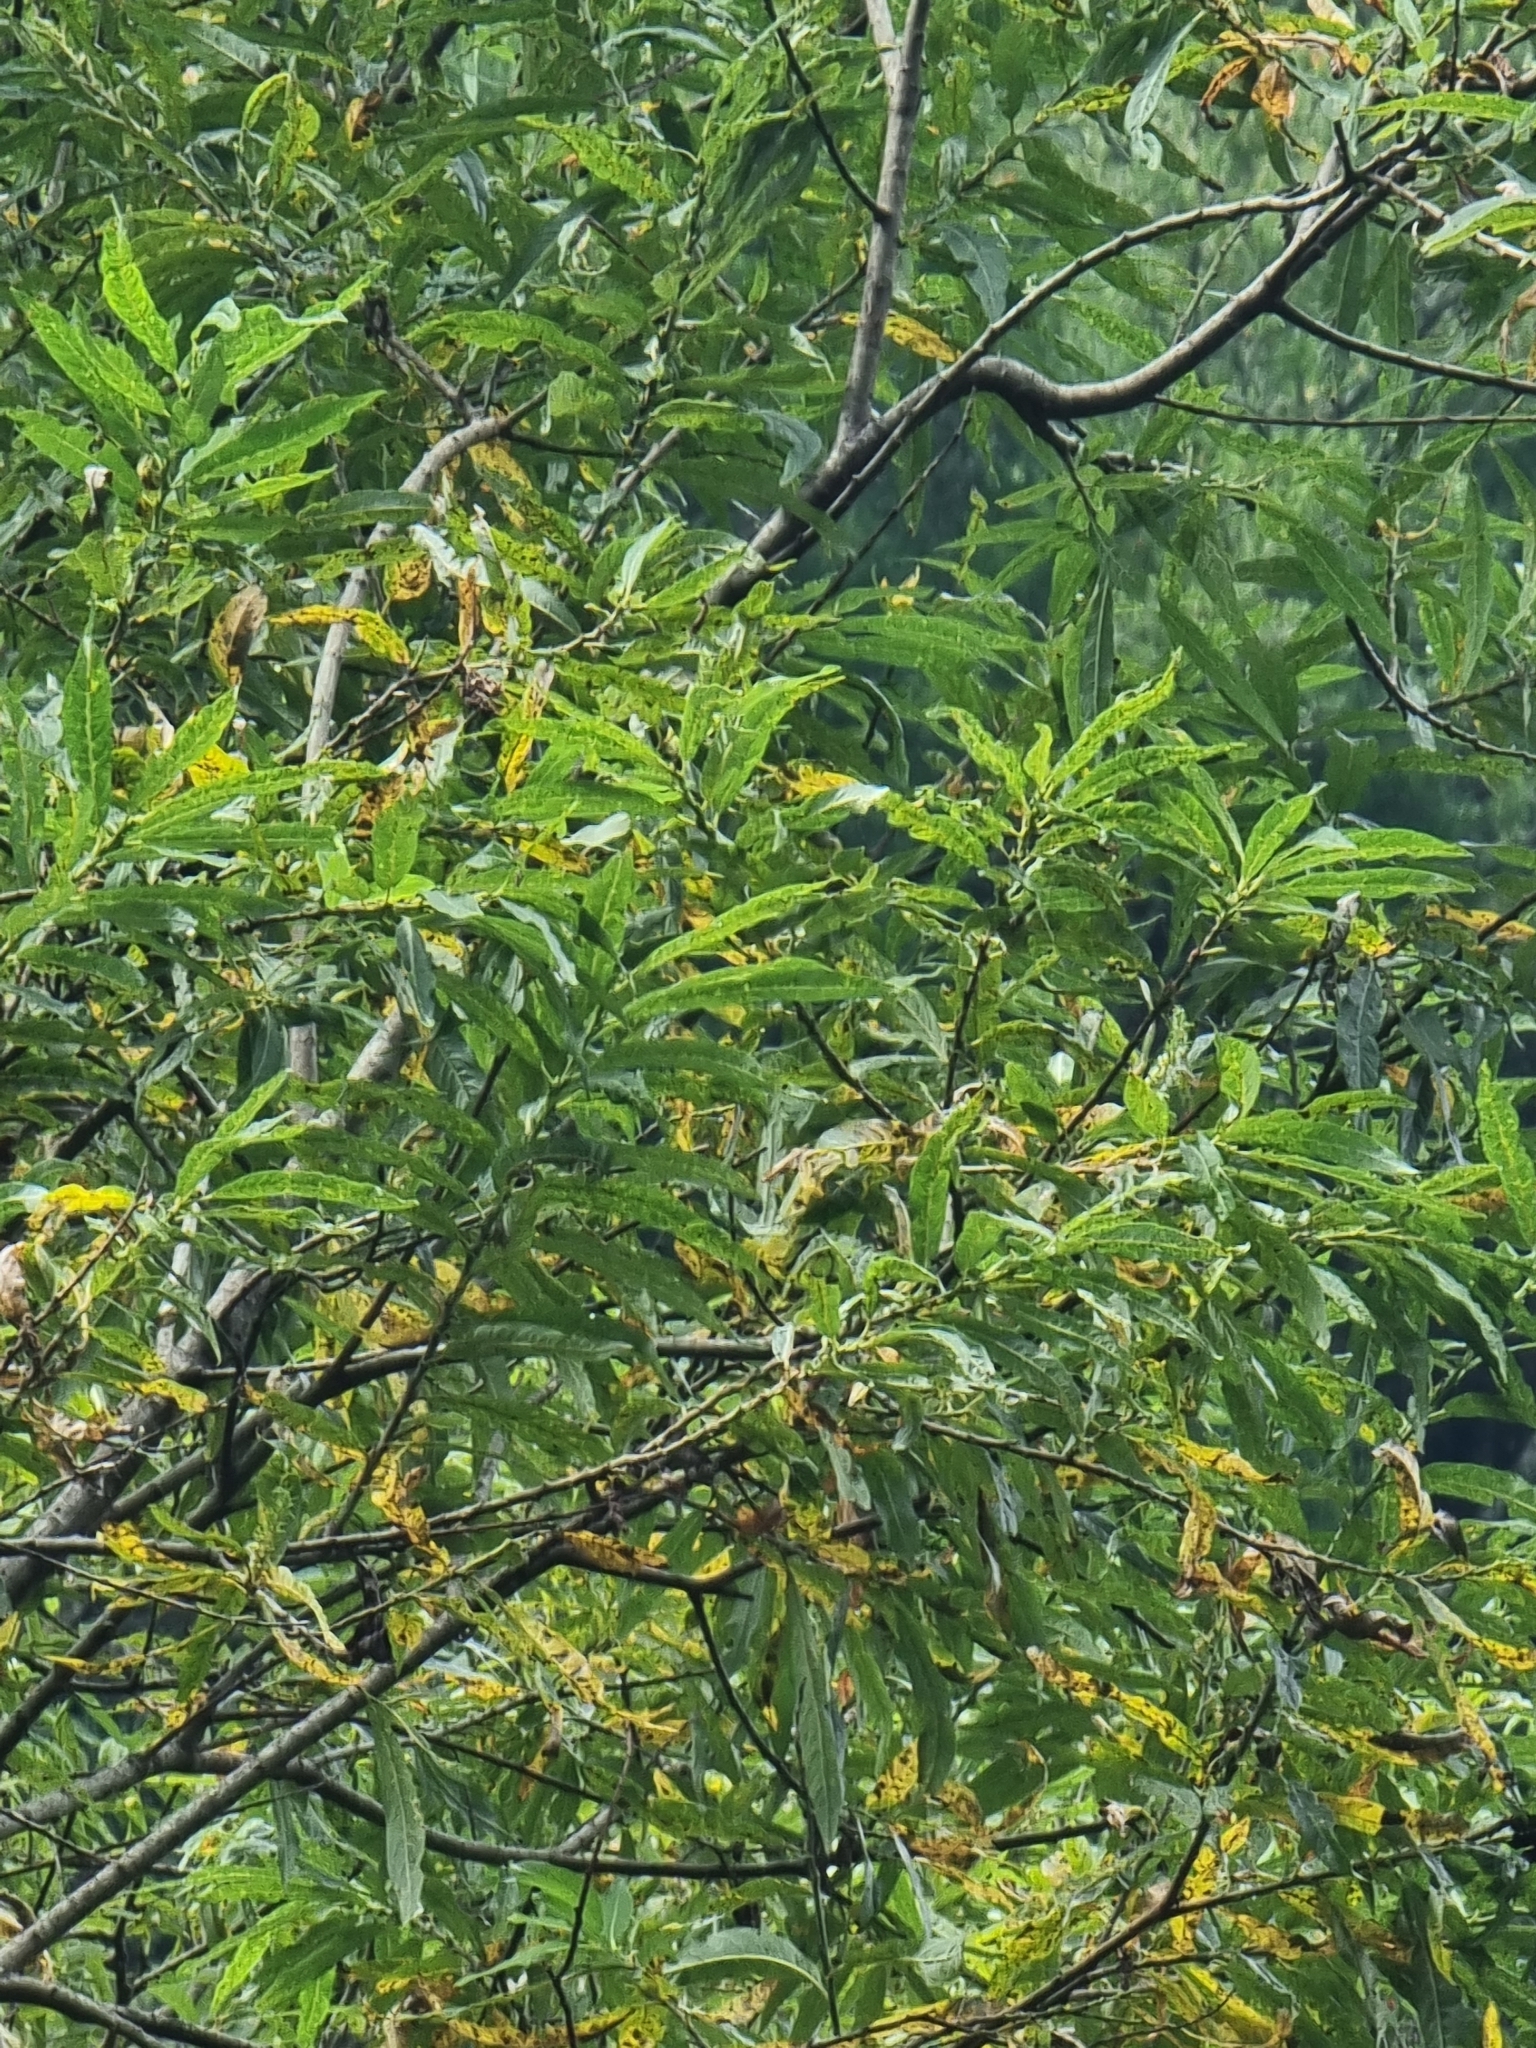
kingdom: Plantae
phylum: Tracheophyta
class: Magnoliopsida
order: Malpighiales
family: Salicaceae
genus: Salix
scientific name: Salix canariensis
